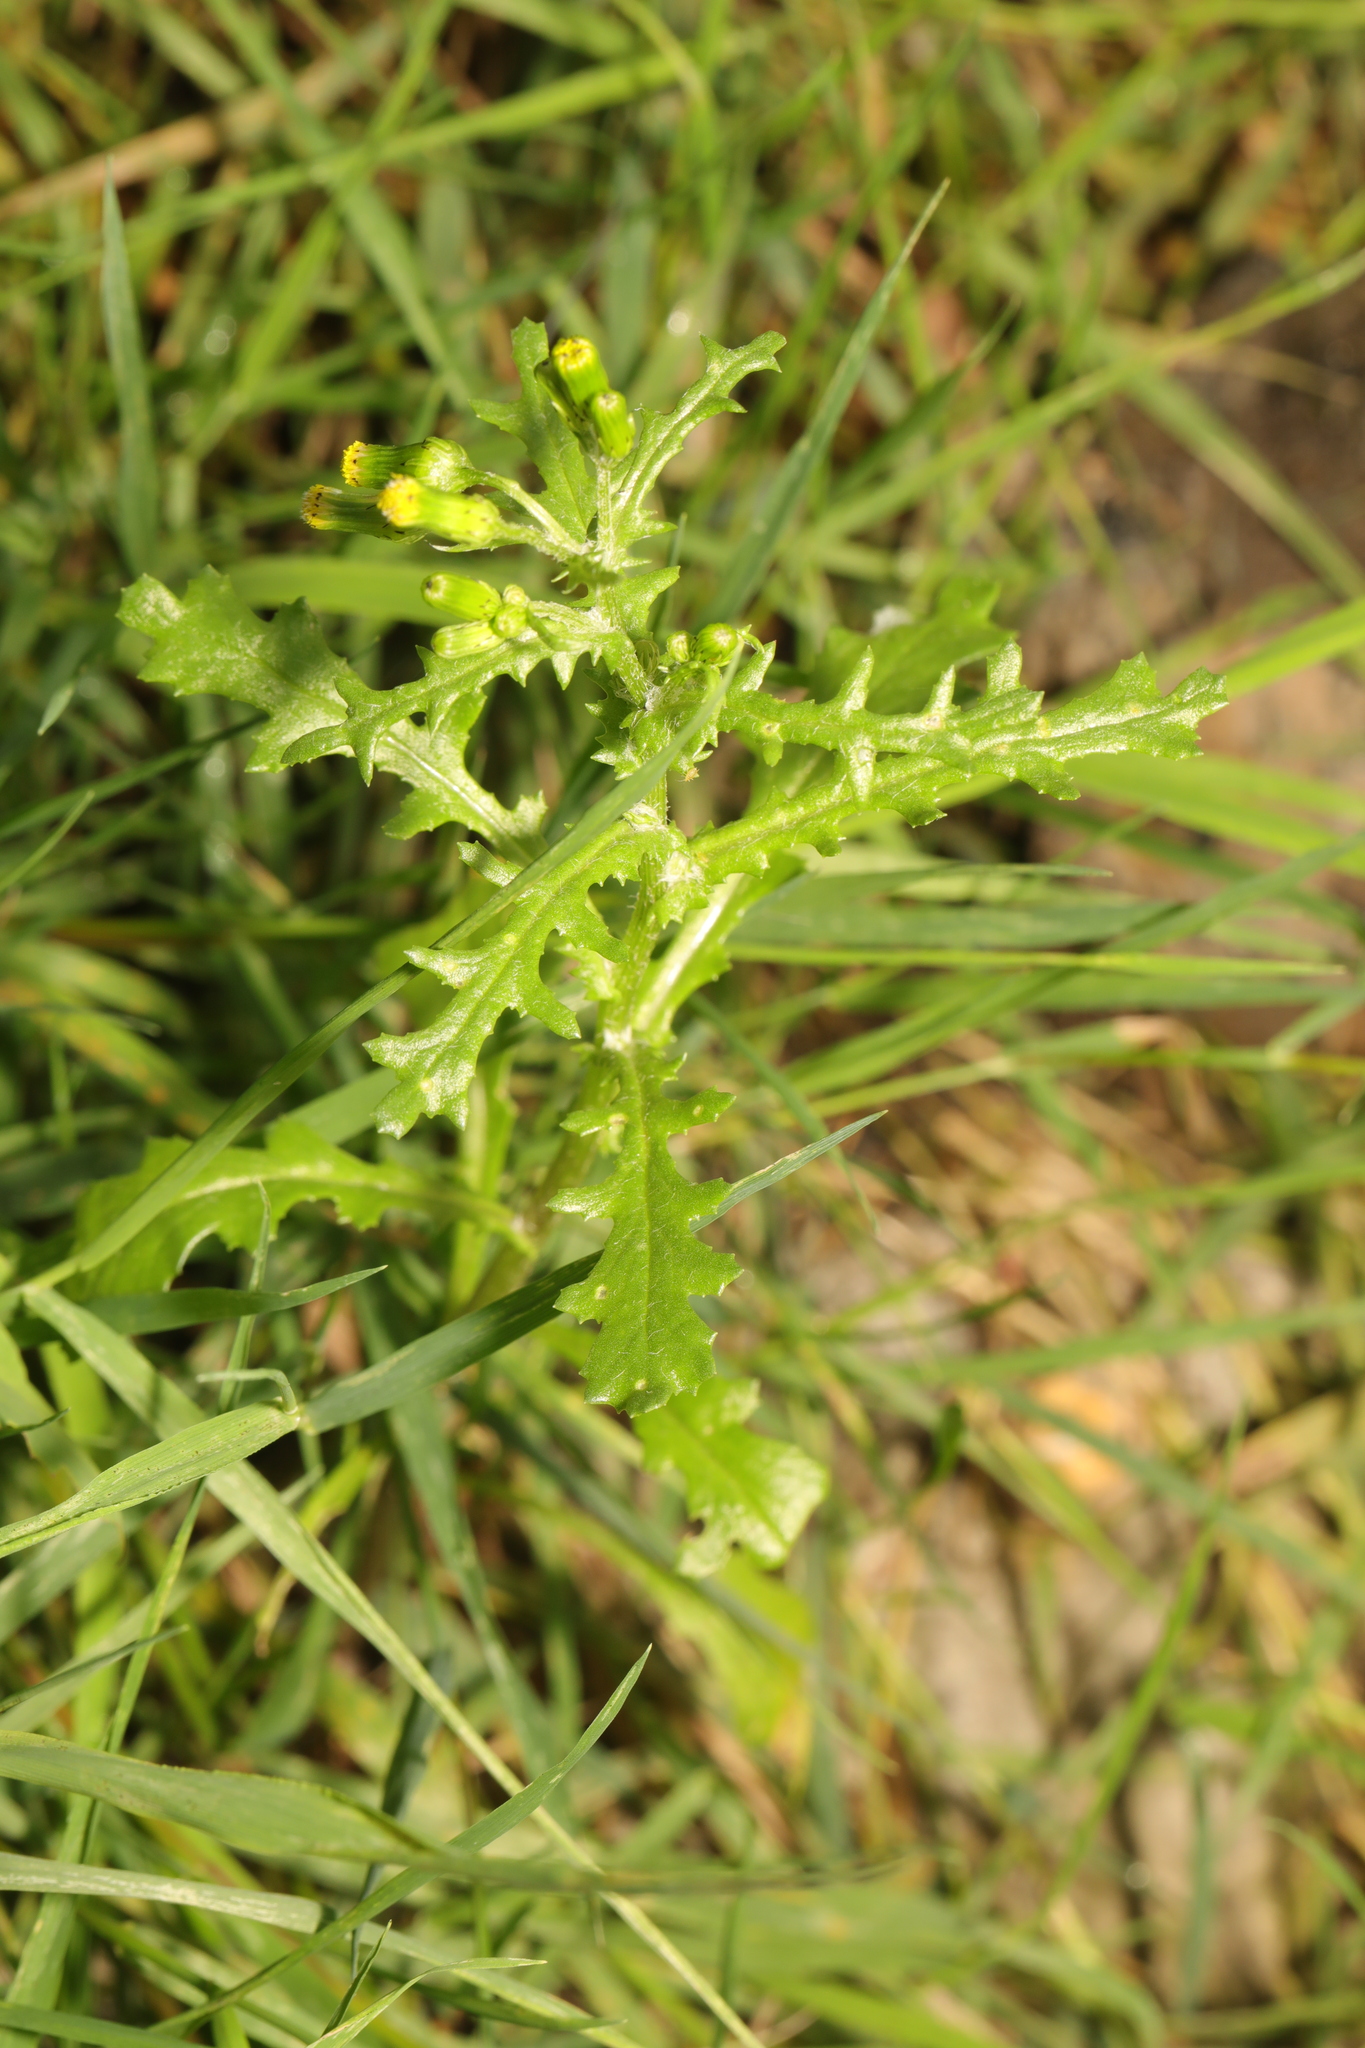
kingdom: Plantae
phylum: Tracheophyta
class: Magnoliopsida
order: Asterales
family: Asteraceae
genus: Senecio
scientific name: Senecio vulgaris
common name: Old-man-in-the-spring
